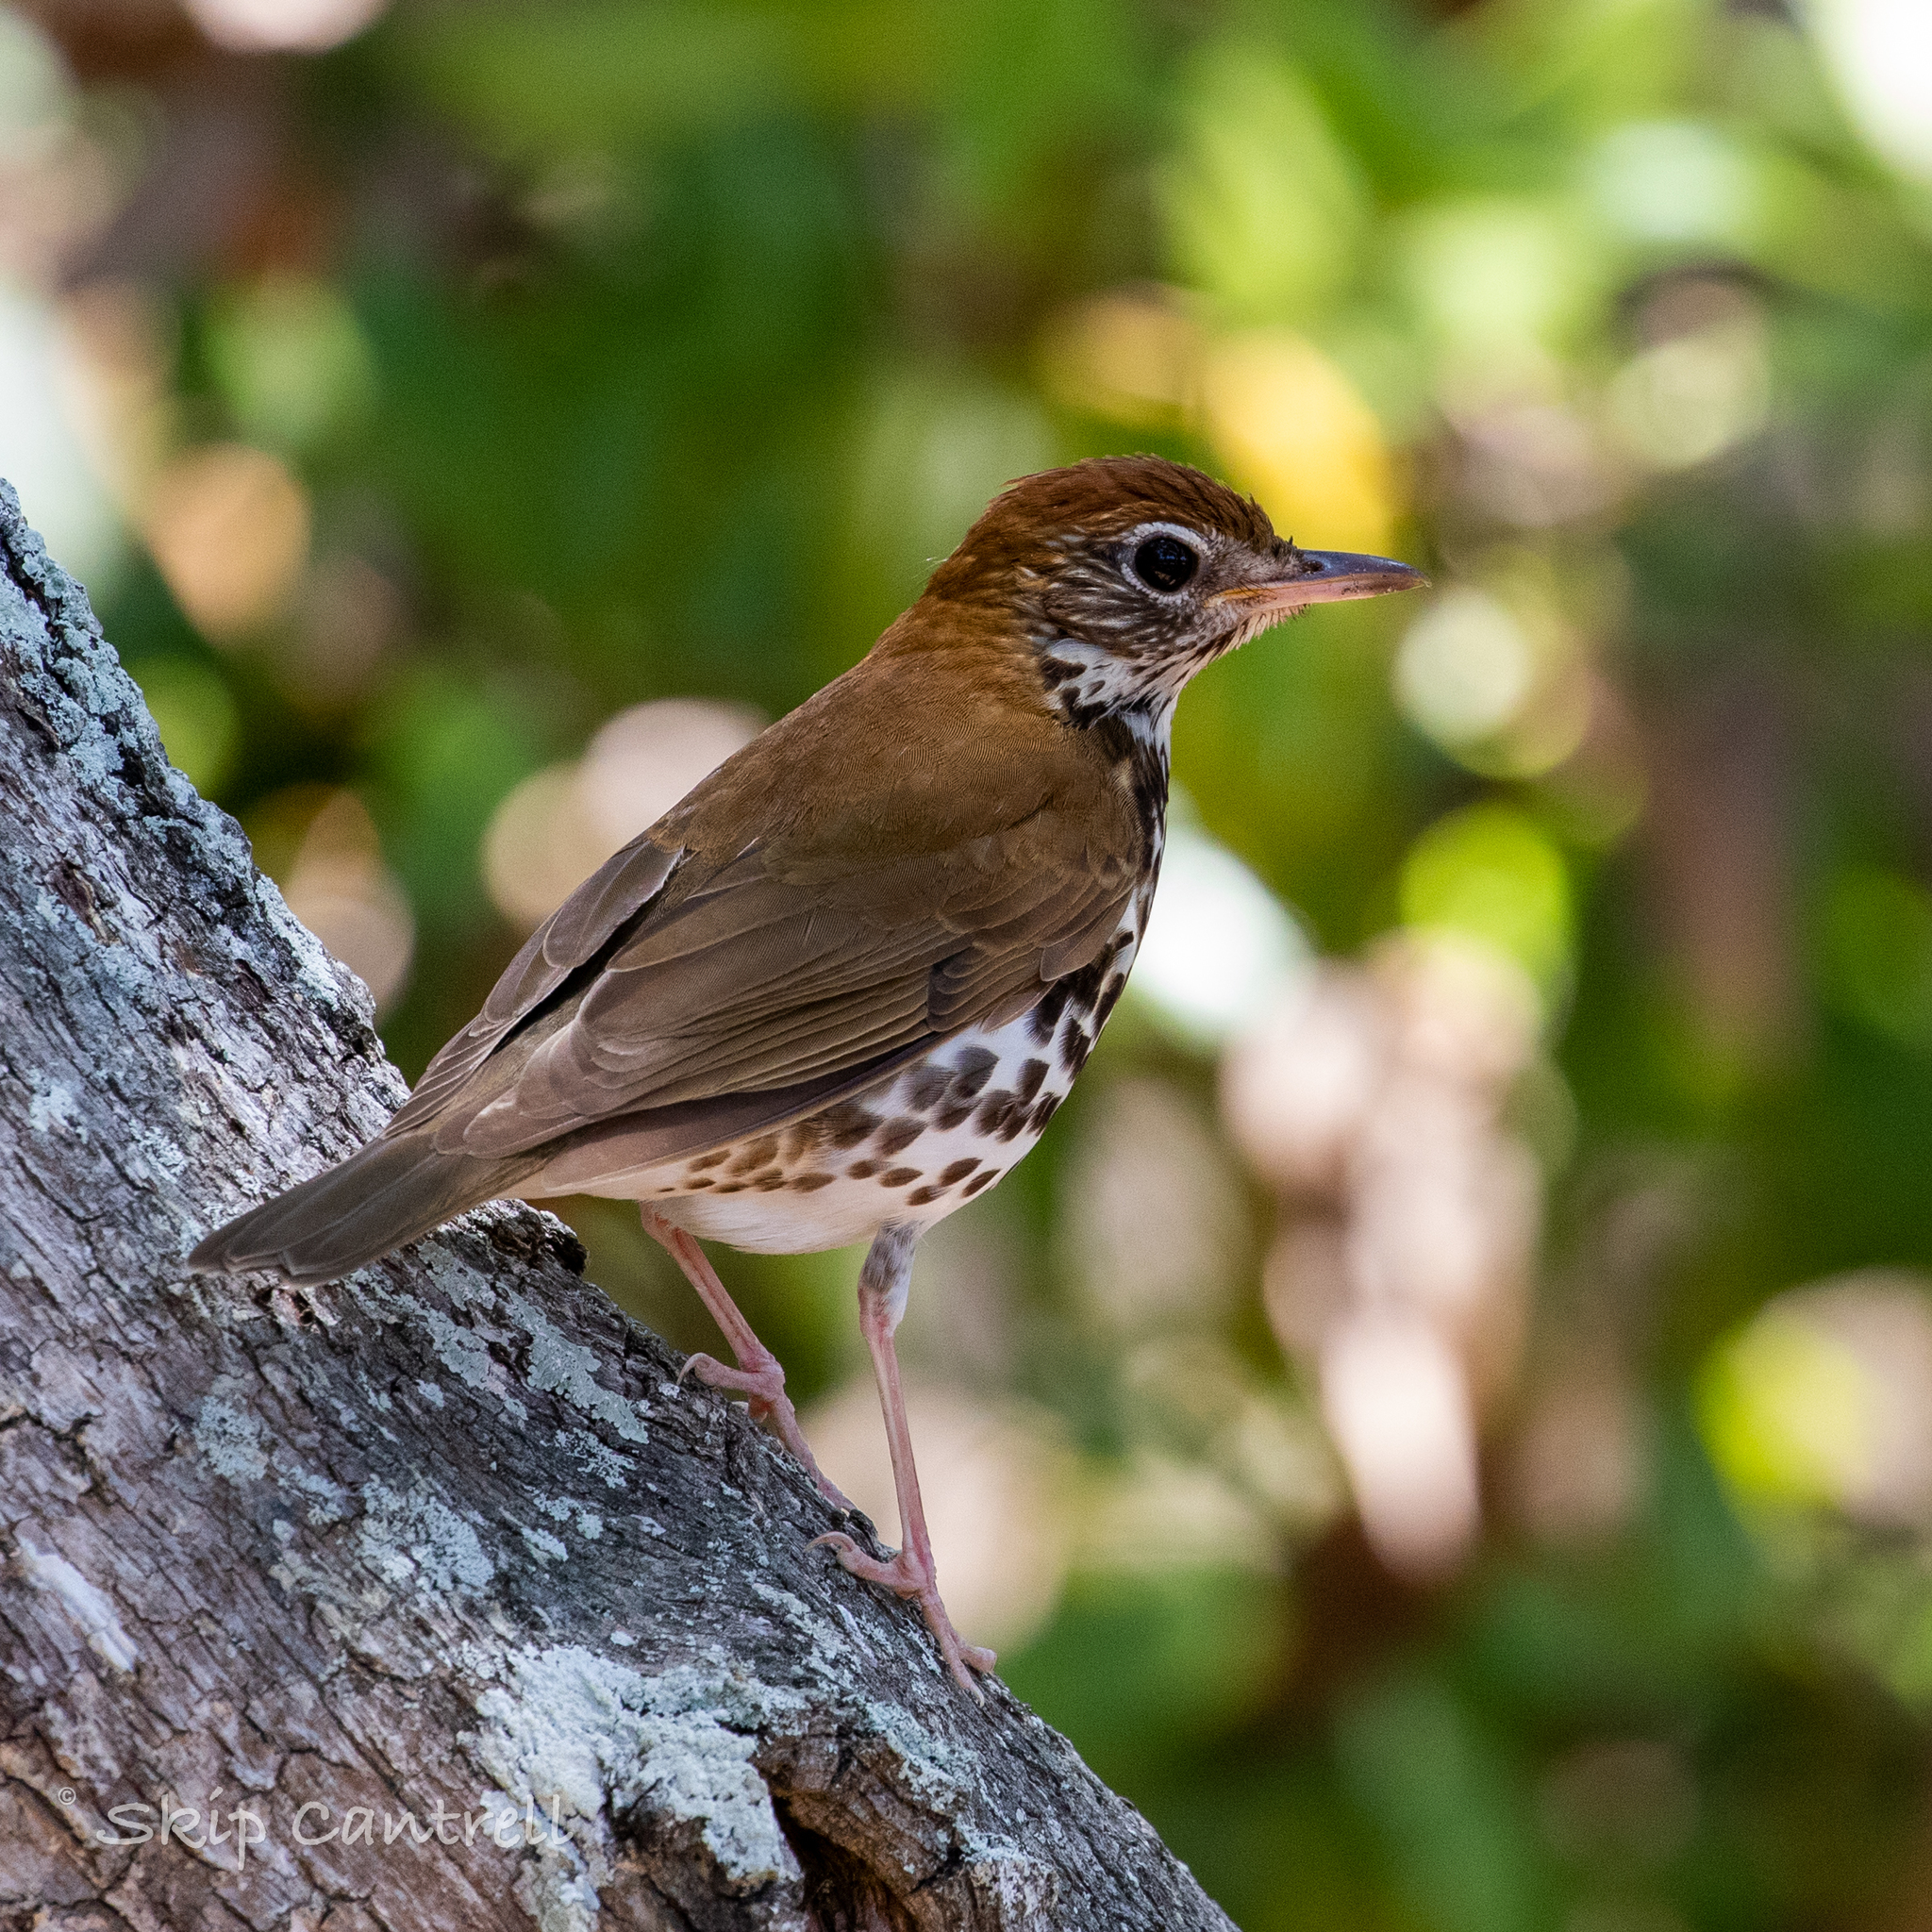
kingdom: Animalia
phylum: Chordata
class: Aves
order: Passeriformes
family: Turdidae
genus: Hylocichla
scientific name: Hylocichla mustelina
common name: Wood thrush
